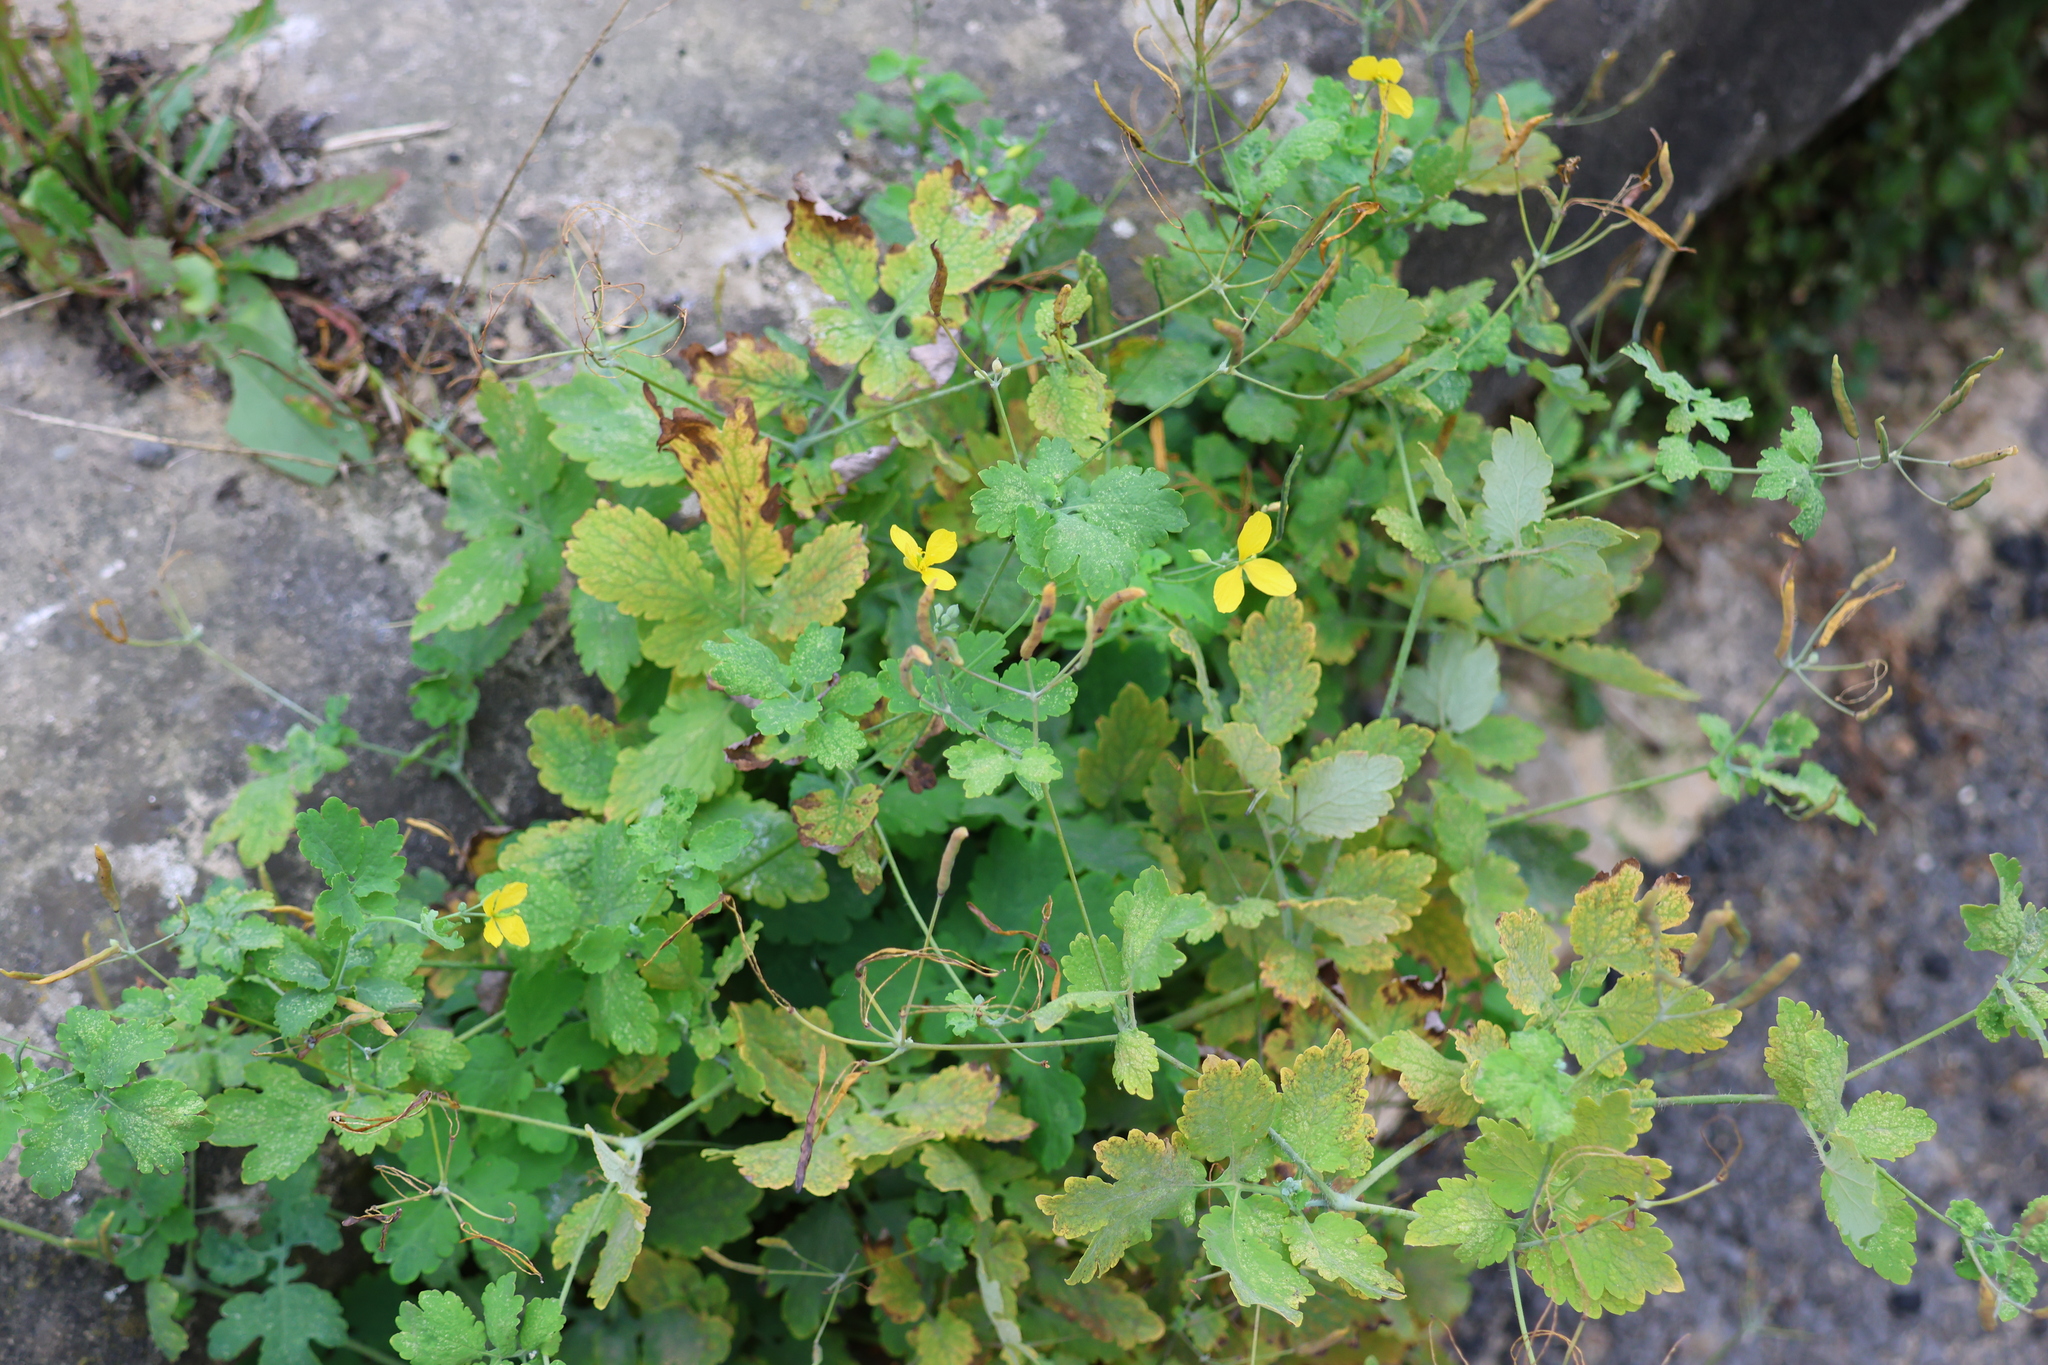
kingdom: Plantae
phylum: Tracheophyta
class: Magnoliopsida
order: Ranunculales
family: Papaveraceae
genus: Chelidonium
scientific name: Chelidonium majus
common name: Greater celandine
